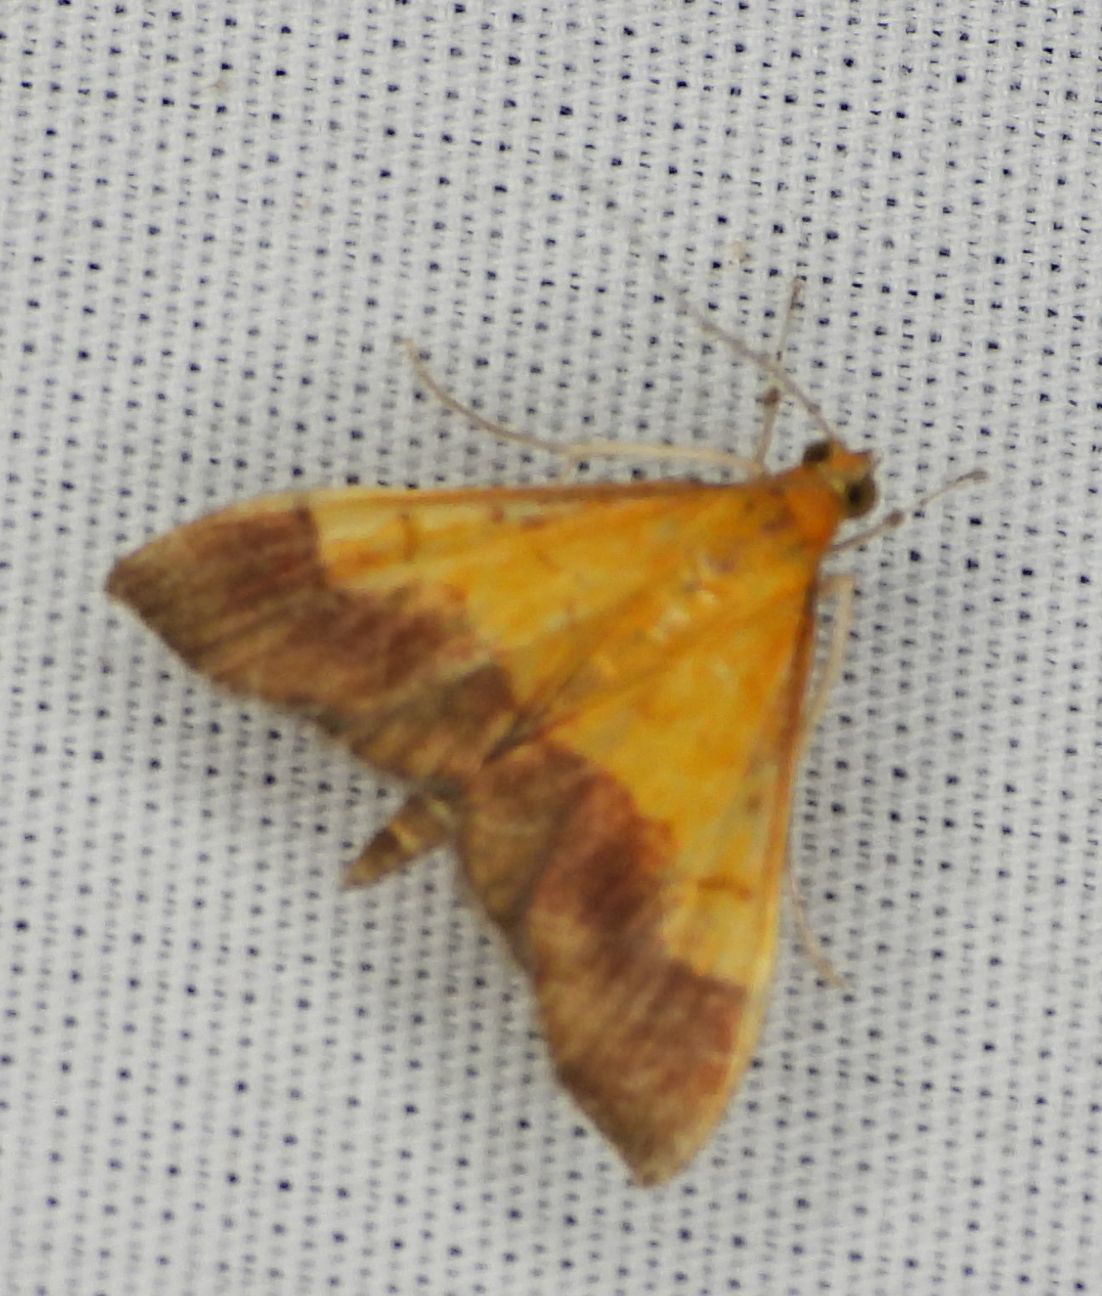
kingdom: Animalia
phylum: Arthropoda
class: Insecta
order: Lepidoptera
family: Crambidae
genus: Pyrausta
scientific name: Pyrausta bicoloralis
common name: Bicolored pyrausta moth
